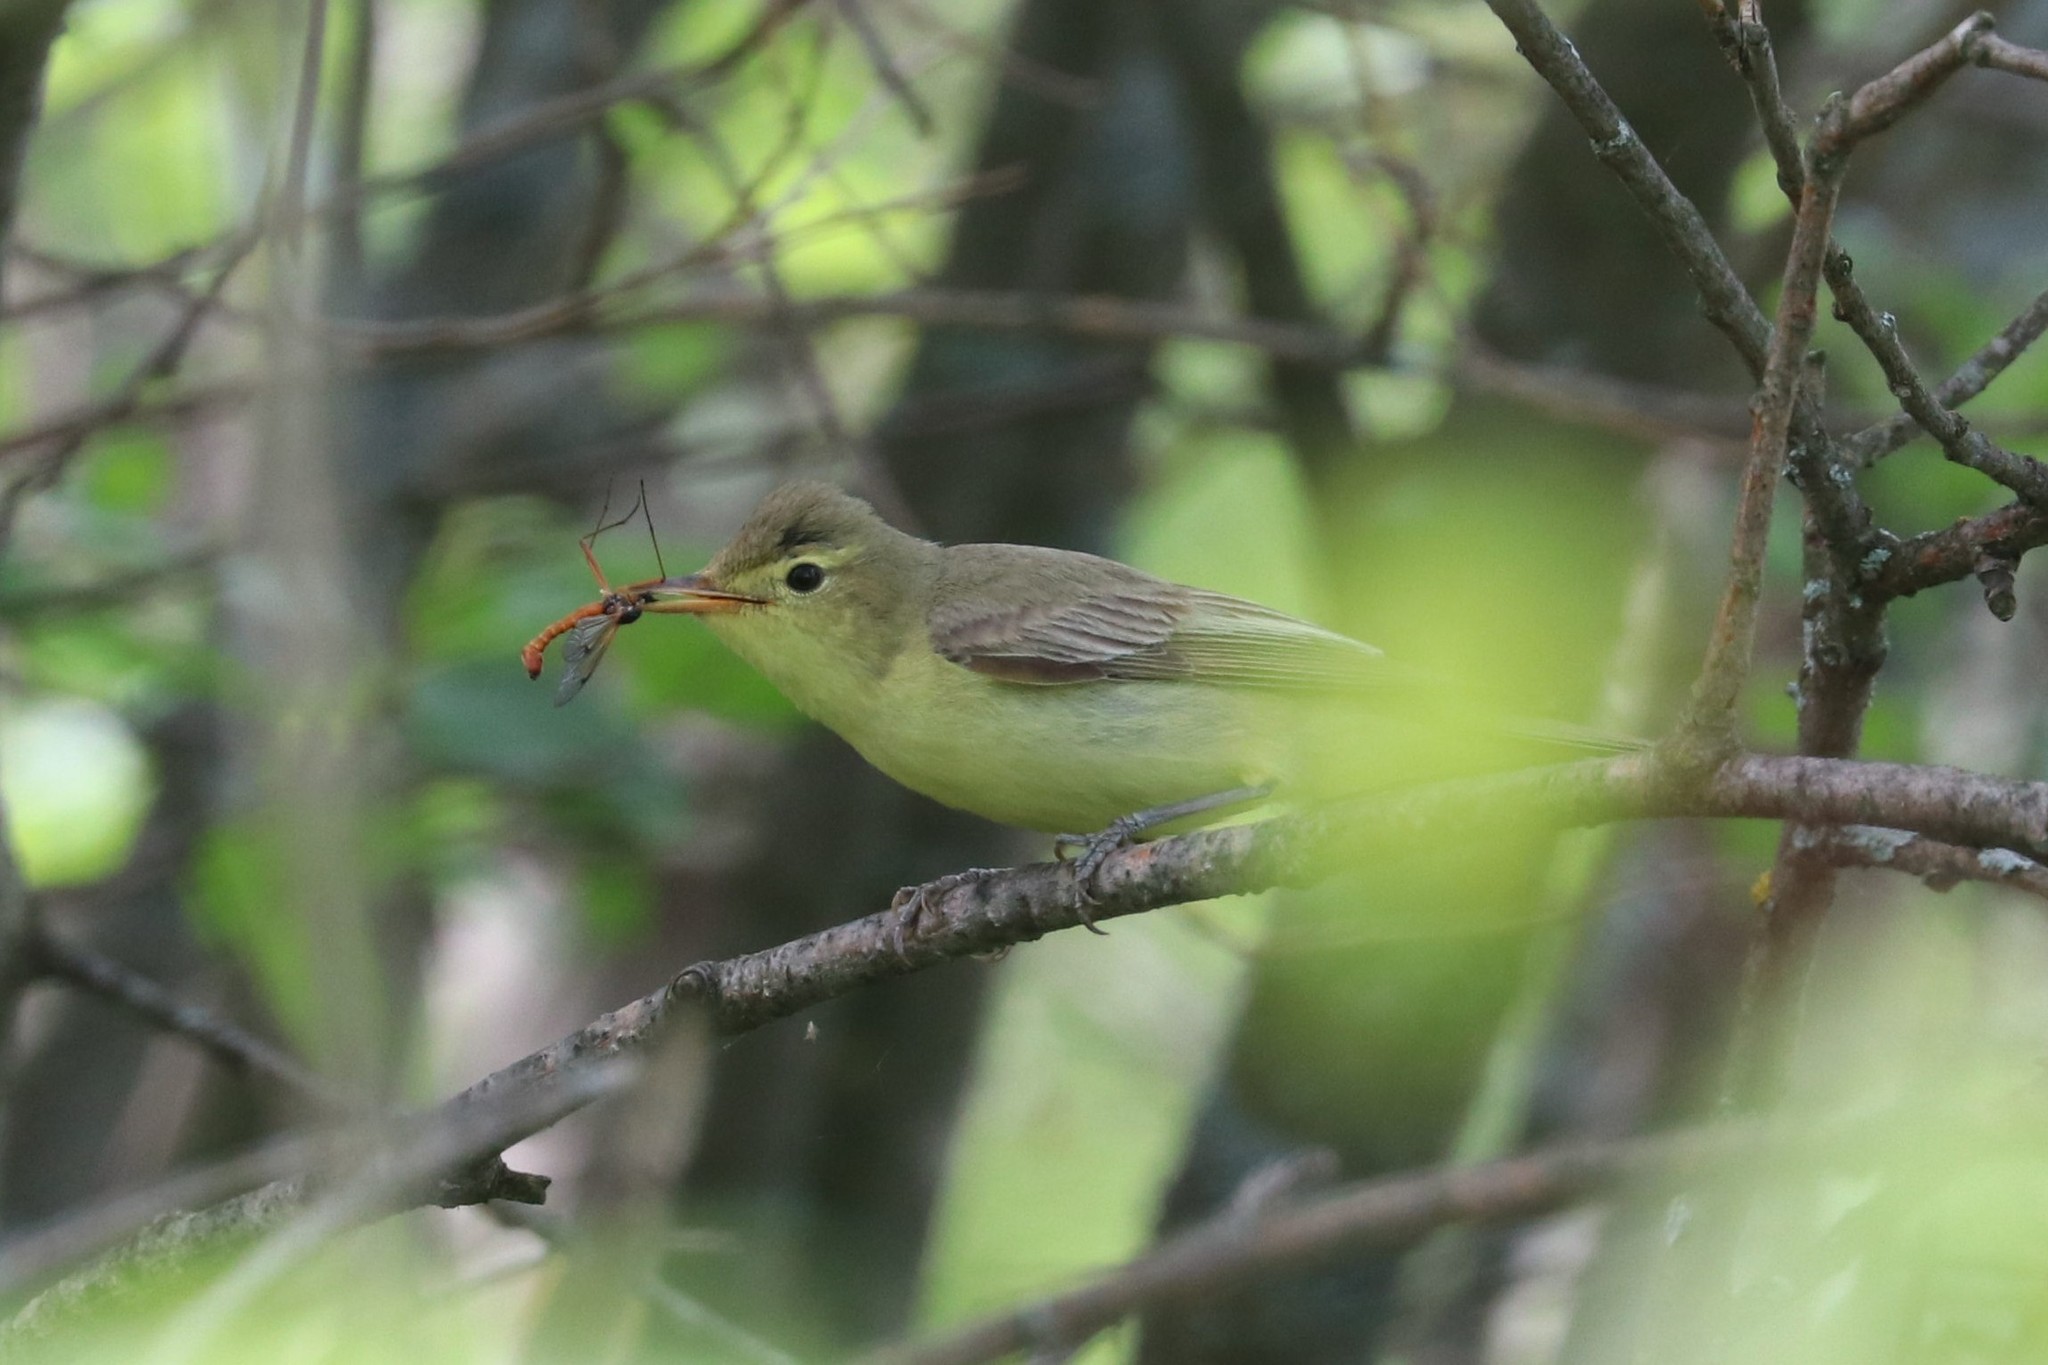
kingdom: Animalia
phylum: Chordata
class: Aves
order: Passeriformes
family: Acrocephalidae
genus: Hippolais
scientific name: Hippolais icterina
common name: Icterine warbler
